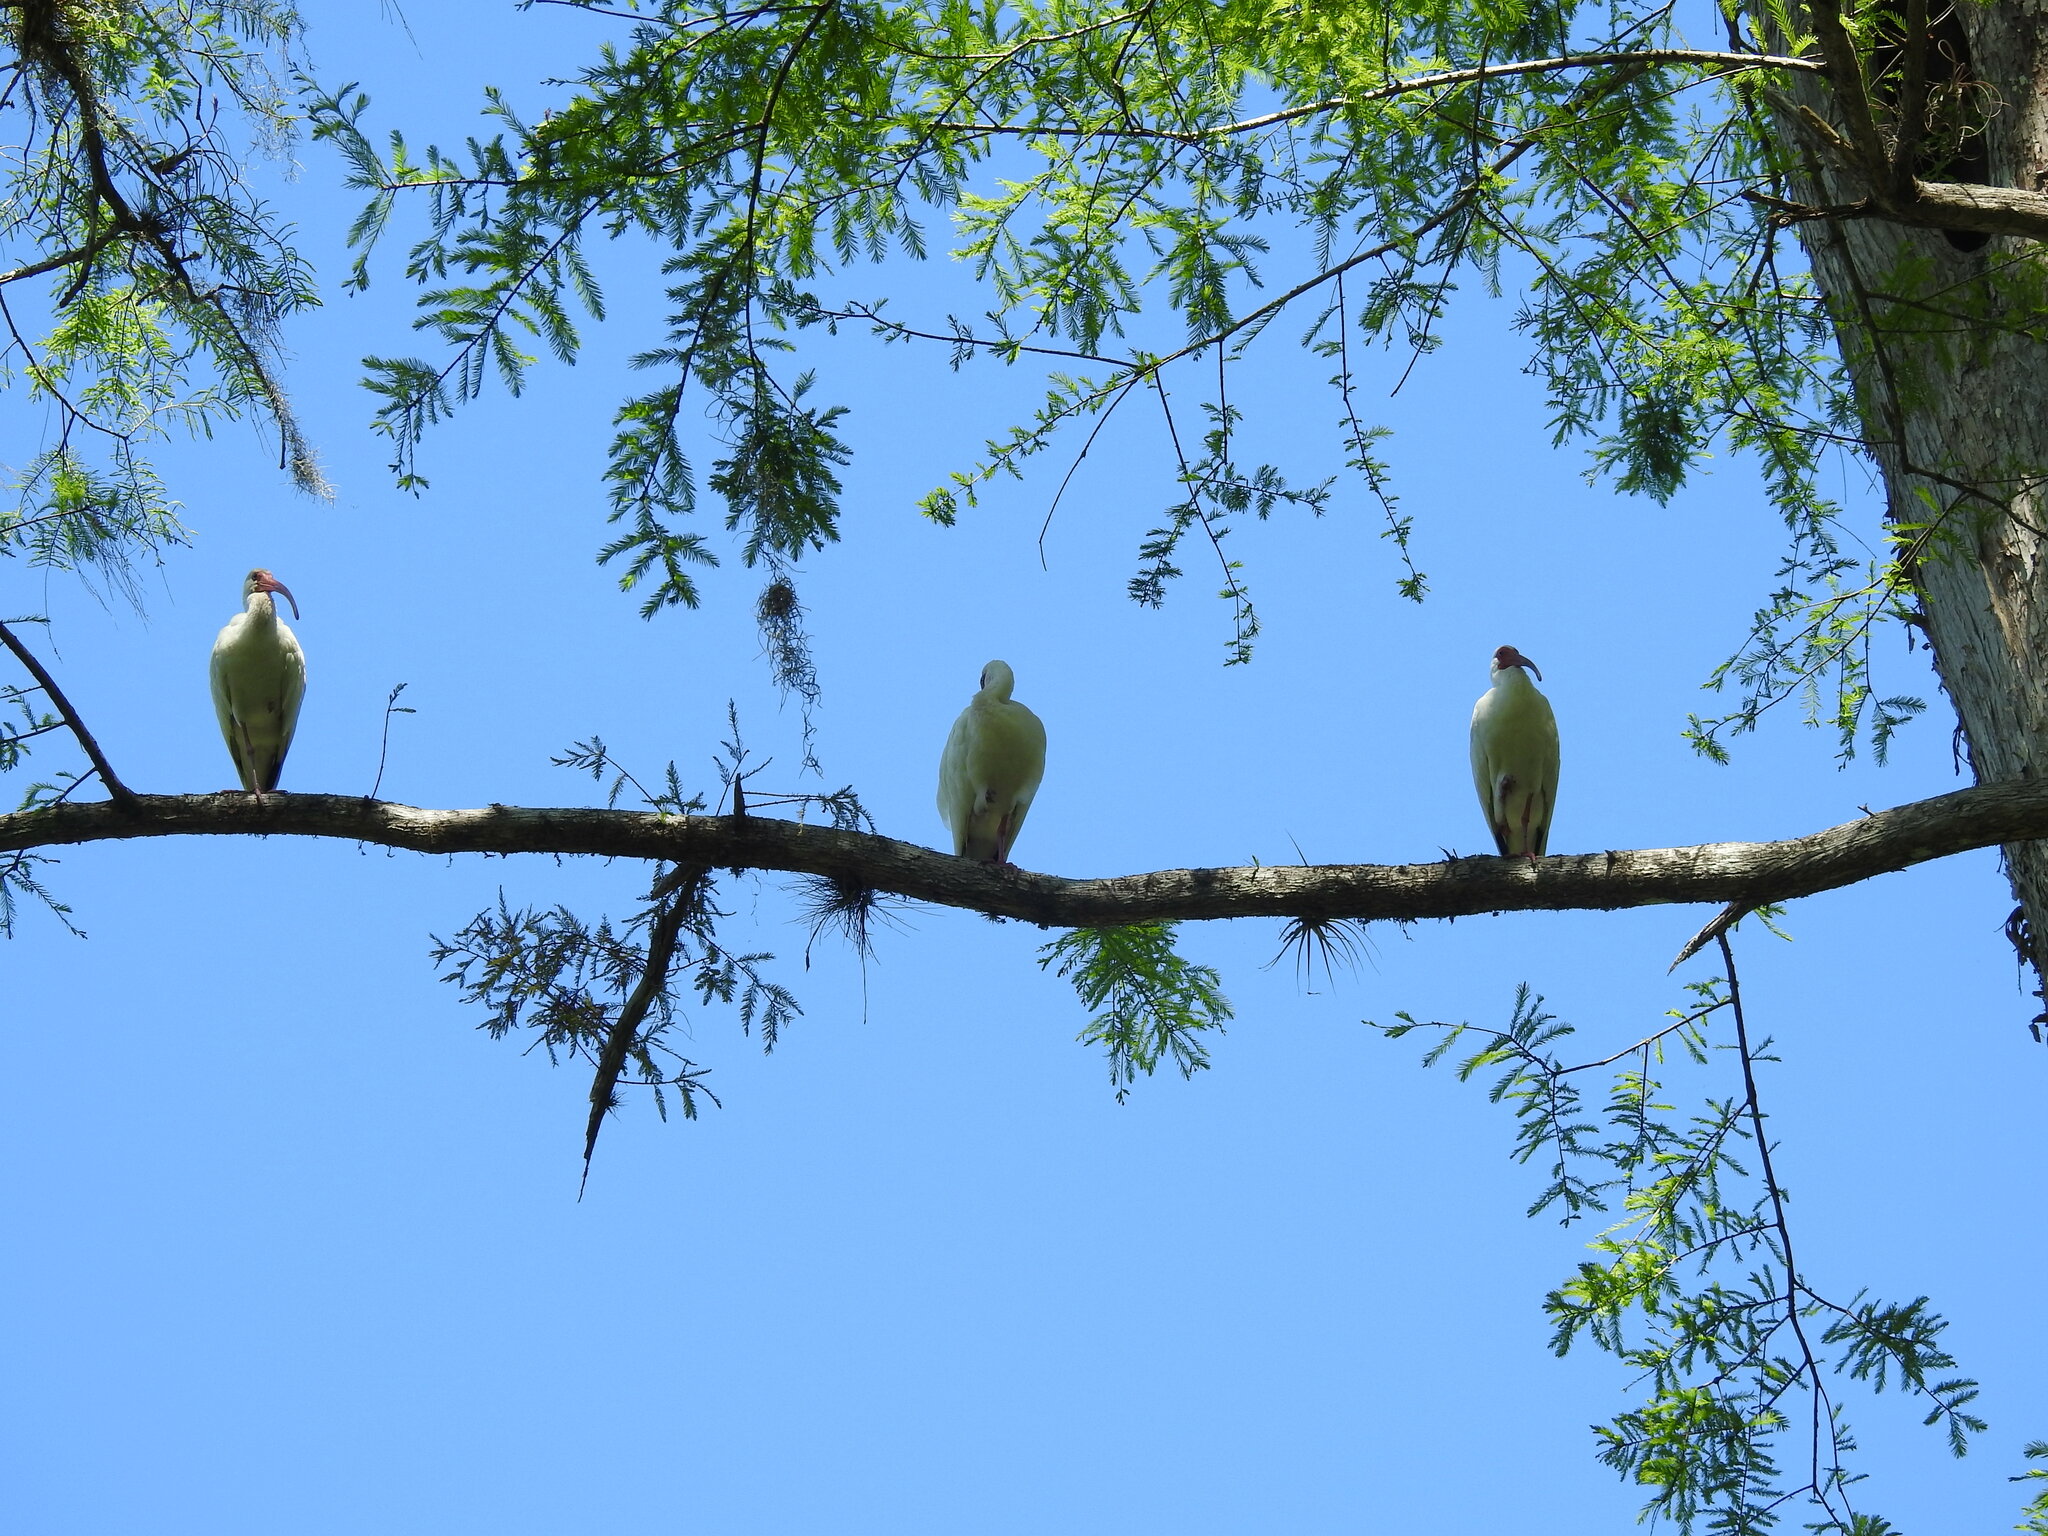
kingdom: Animalia
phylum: Chordata
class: Aves
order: Pelecaniformes
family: Threskiornithidae
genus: Eudocimus
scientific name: Eudocimus albus
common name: White ibis
